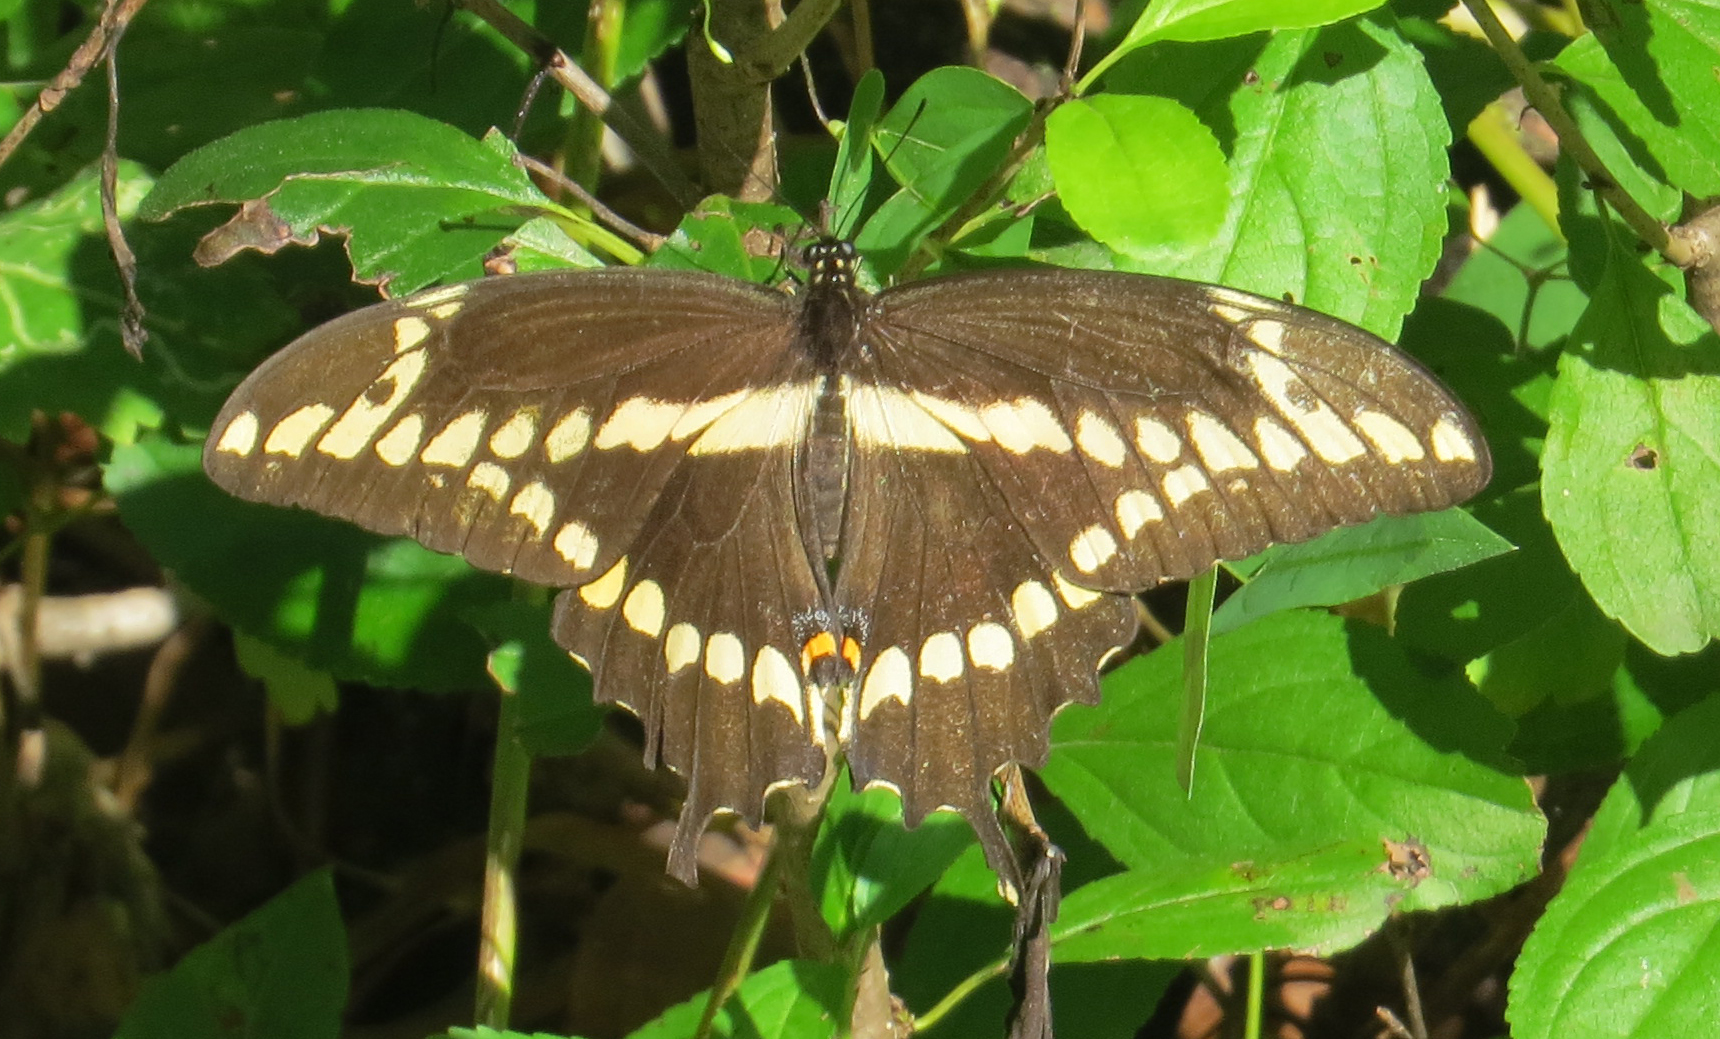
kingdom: Animalia
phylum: Arthropoda
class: Insecta
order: Lepidoptera
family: Papilionidae
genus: Papilio
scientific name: Papilio cresphontes
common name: Giant swallowtail
